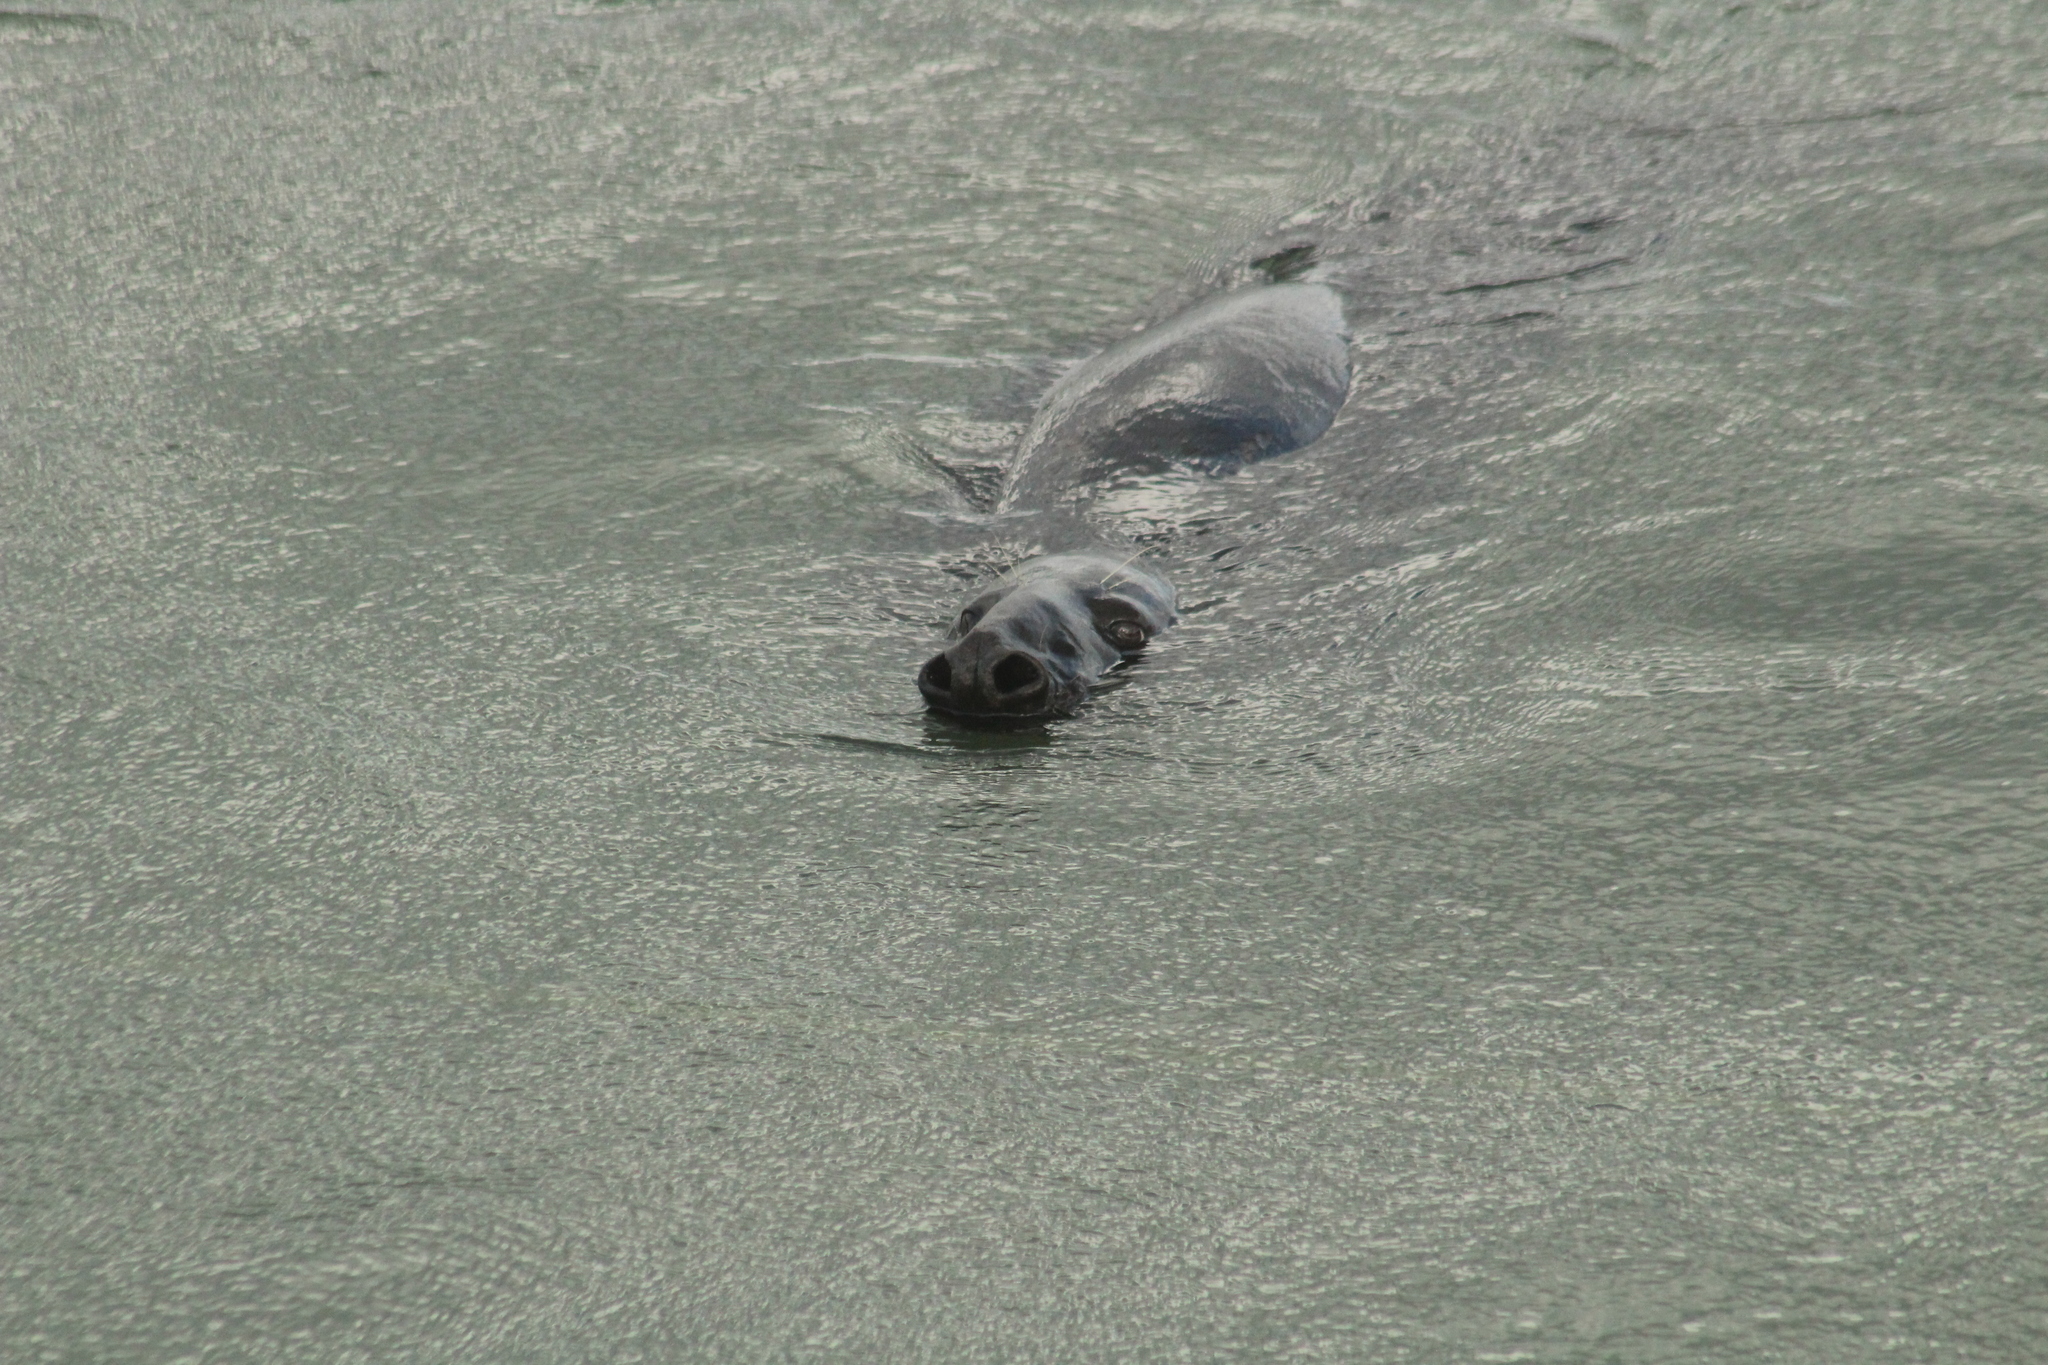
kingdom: Animalia
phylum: Chordata
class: Mammalia
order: Carnivora
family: Phocidae
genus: Halichoerus
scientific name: Halichoerus grypus
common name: Grey seal
